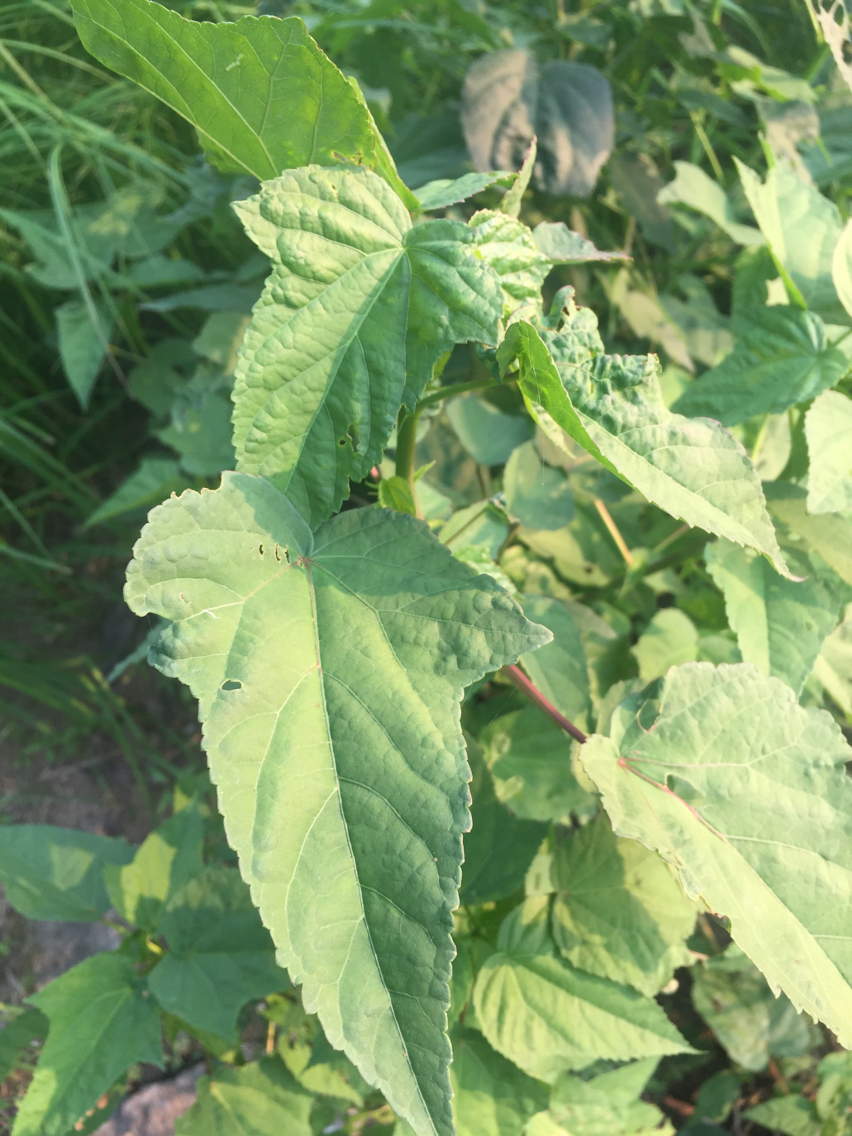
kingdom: Plantae
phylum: Tracheophyta
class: Magnoliopsida
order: Malvales
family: Malvaceae
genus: Hibiscus
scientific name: Hibiscus laevis
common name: Scarlet rose-mallow
